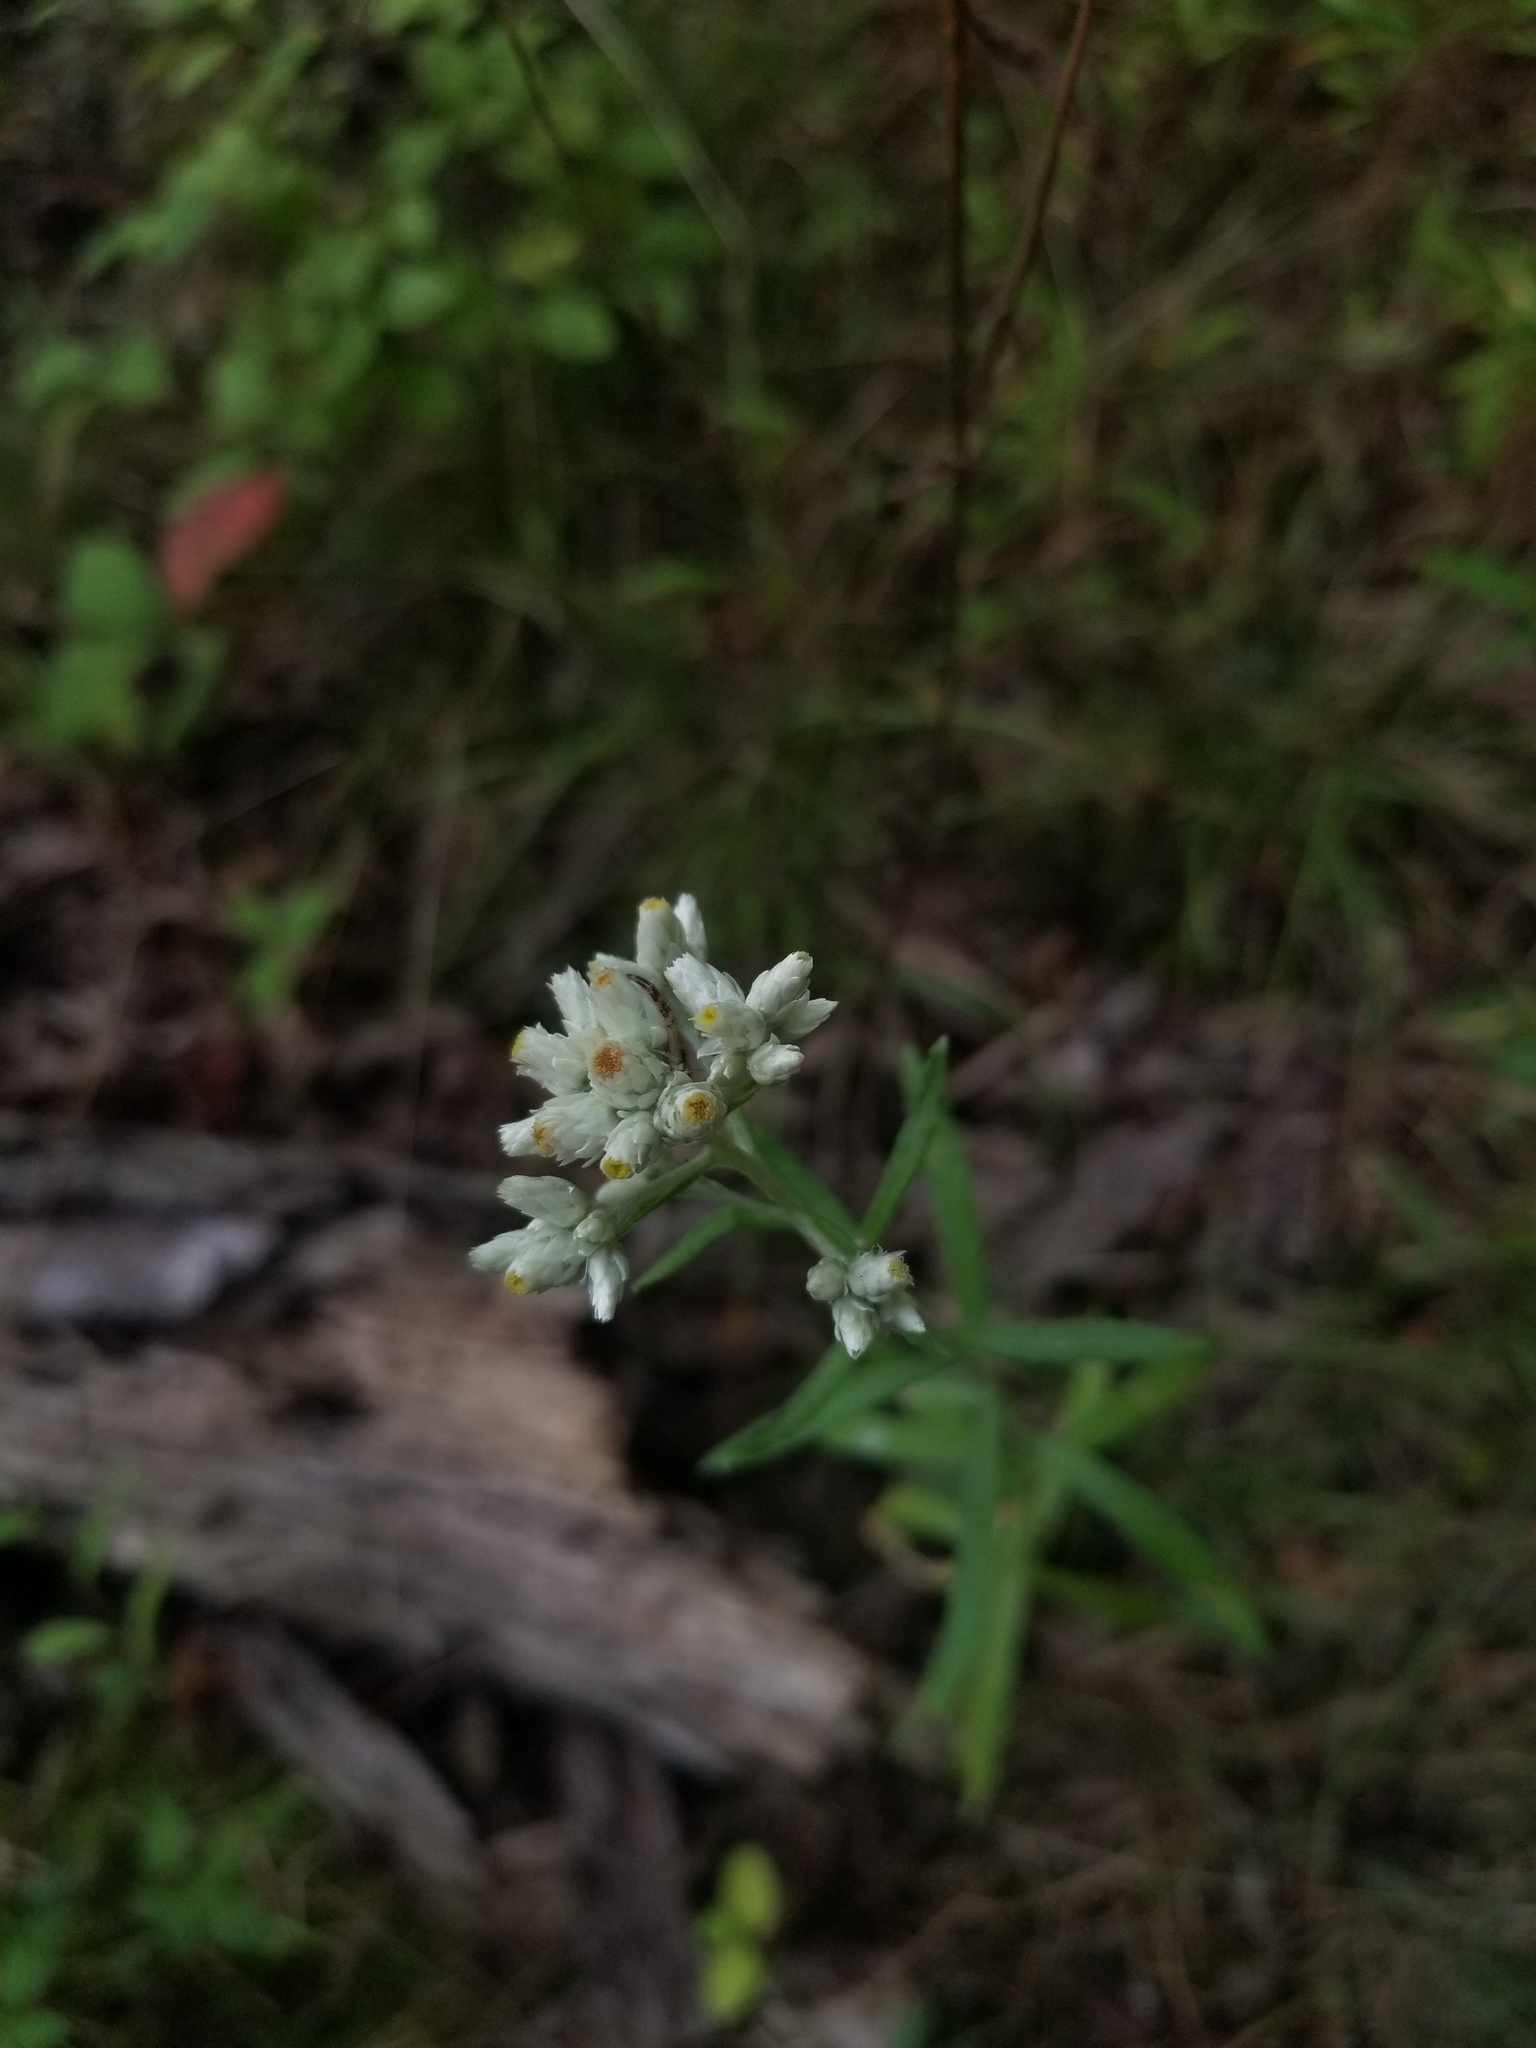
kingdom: Plantae
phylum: Tracheophyta
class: Magnoliopsida
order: Asterales
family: Asteraceae
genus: Pseudognaphalium
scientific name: Pseudognaphalium obtusifolium
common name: Eastern rabbit-tobacco
